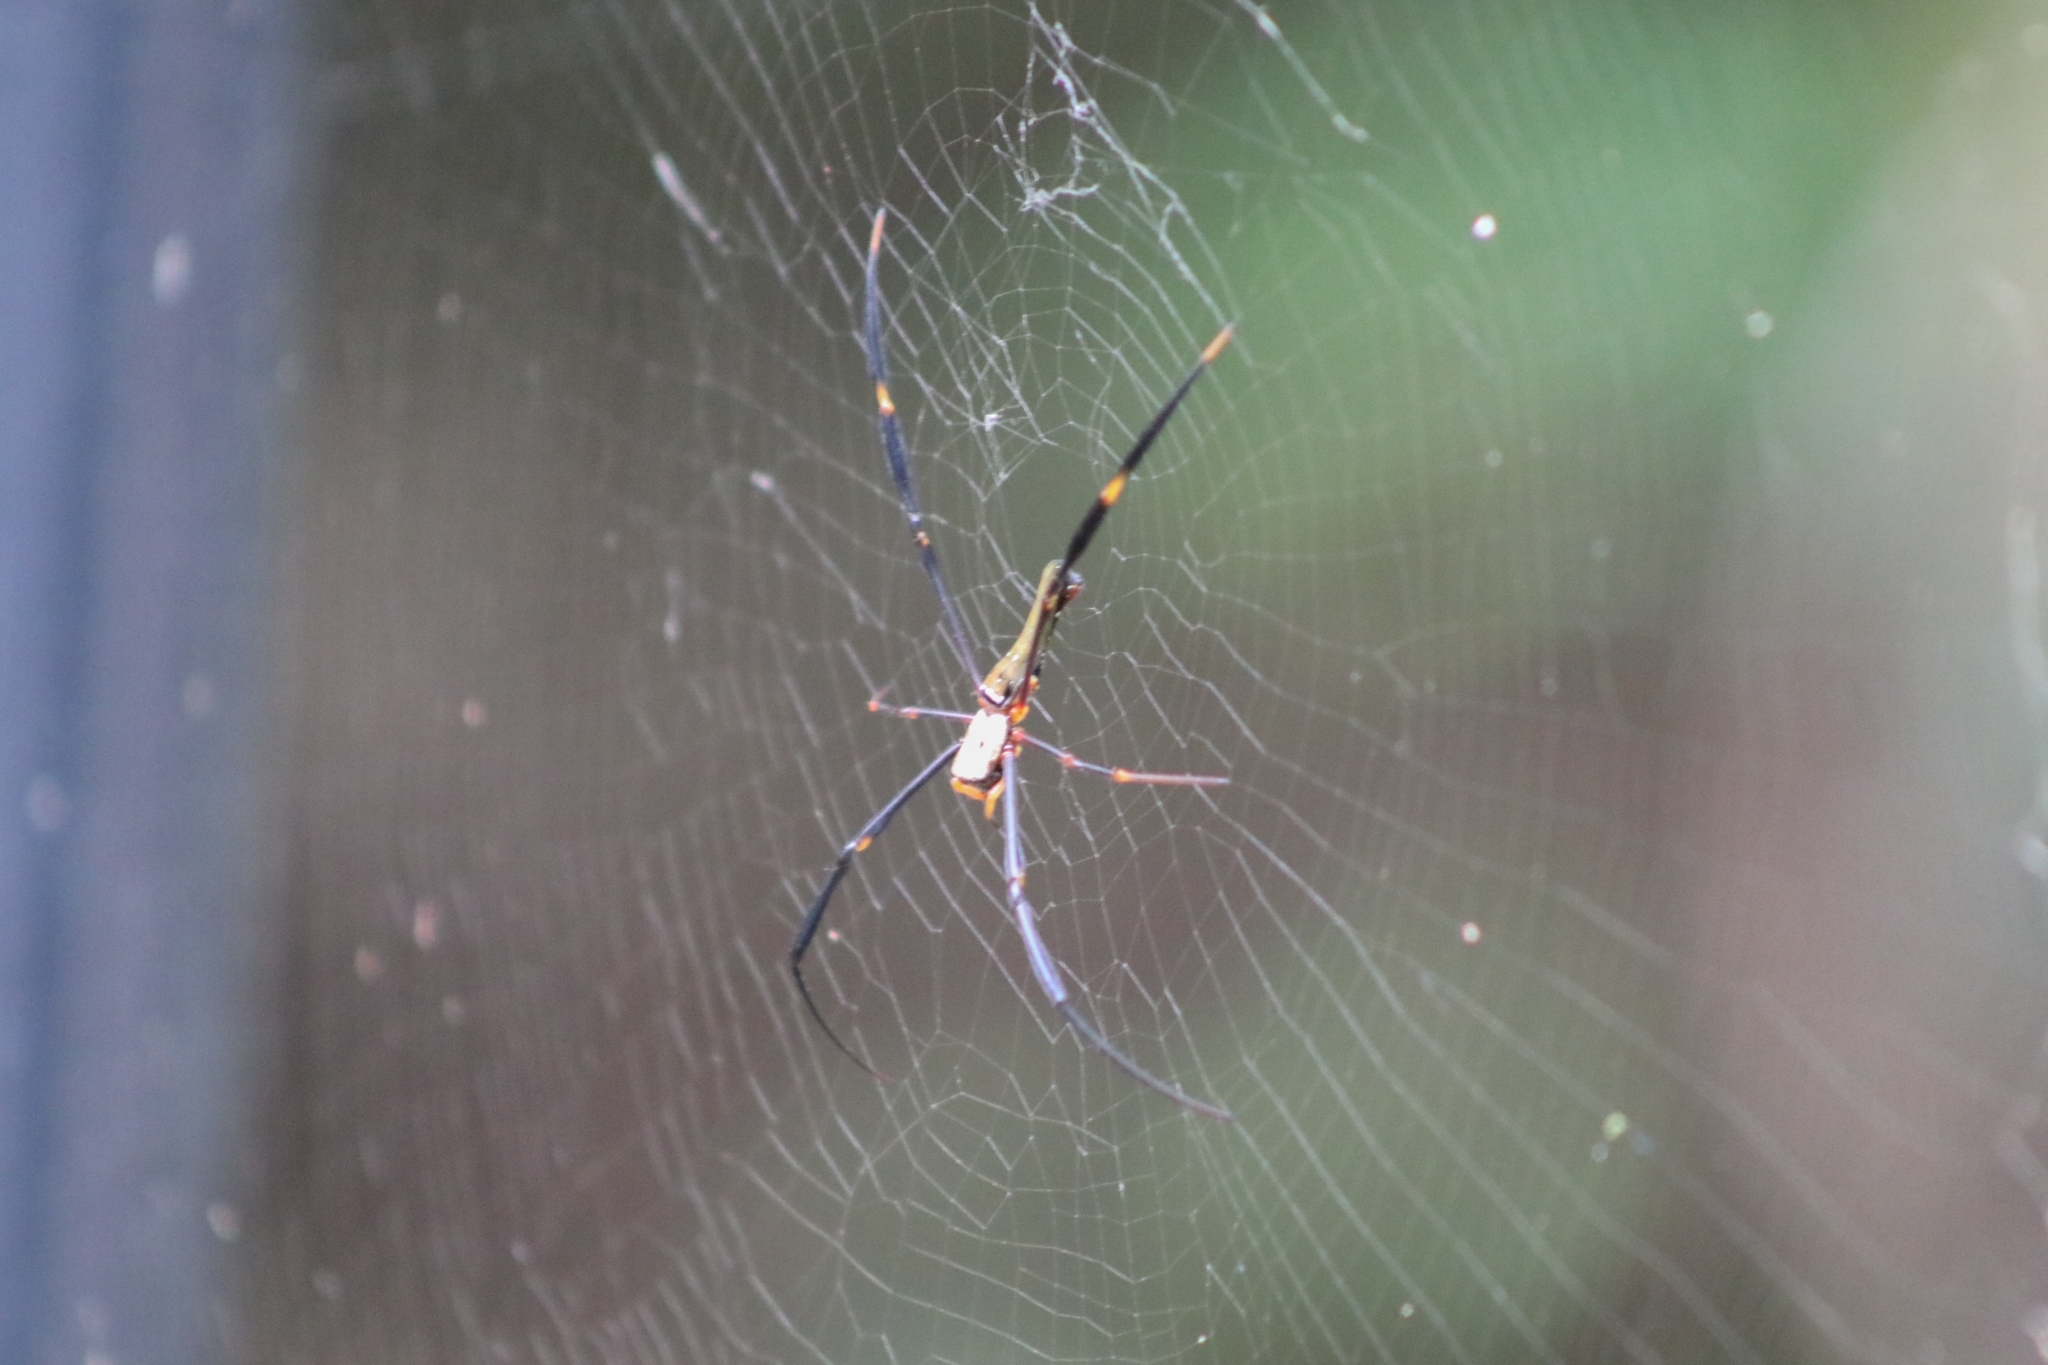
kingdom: Animalia
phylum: Arthropoda
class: Arachnida
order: Araneae
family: Araneidae
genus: Nephila
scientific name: Nephila pilipes
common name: Giant golden orb weaver
